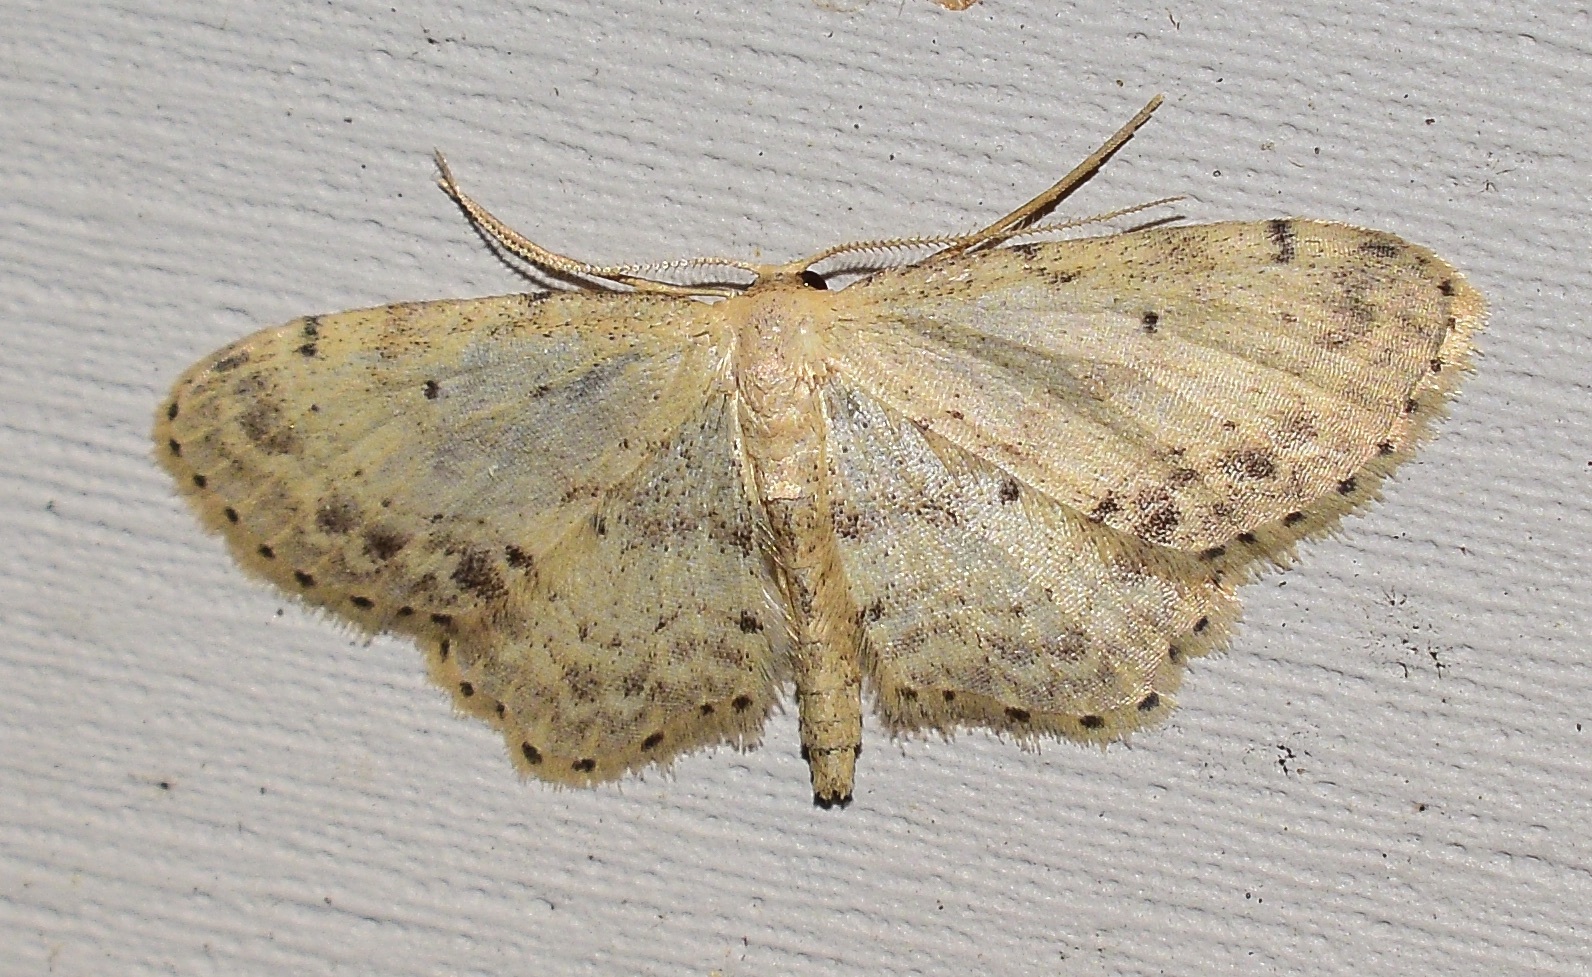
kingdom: Animalia
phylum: Arthropoda
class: Insecta
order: Lepidoptera
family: Geometridae
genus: Idaea
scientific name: Idaea dimidiata
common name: Single-dotted wave
